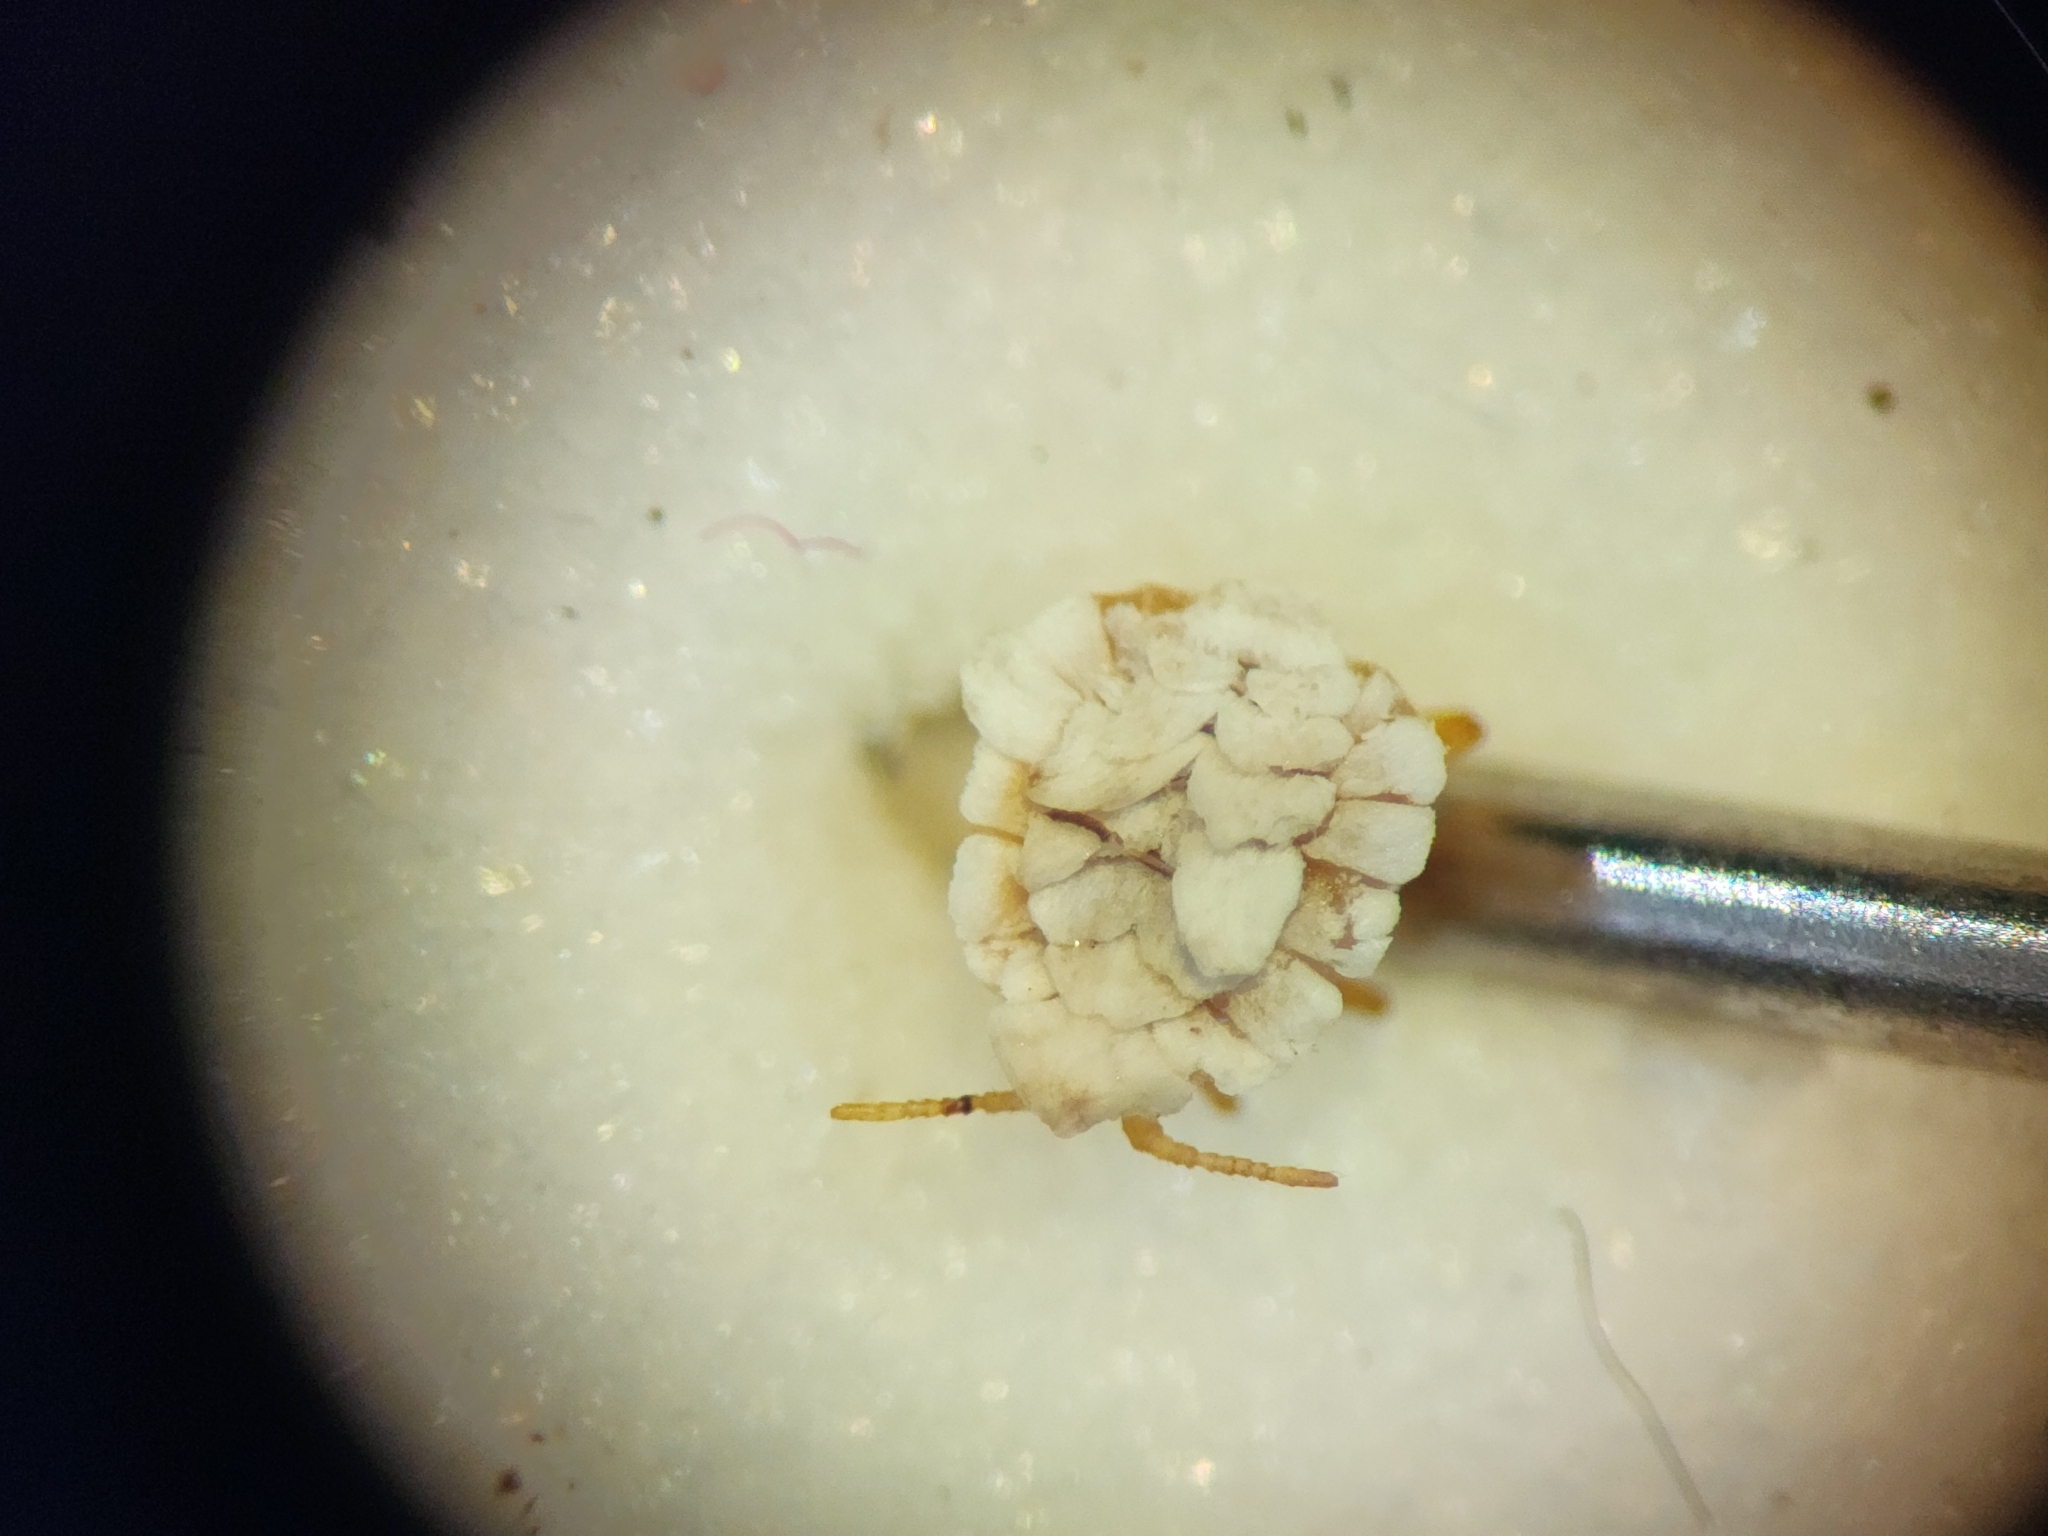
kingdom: Animalia
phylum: Arthropoda
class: Insecta
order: Hemiptera
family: Ortheziidae
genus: Newsteadia
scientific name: Newsteadia gullanae
